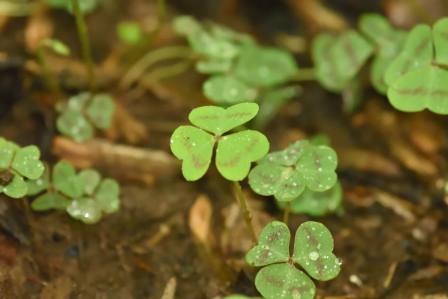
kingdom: Plantae
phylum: Tracheophyta
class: Magnoliopsida
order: Oxalidales
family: Oxalidaceae
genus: Oxalis
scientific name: Oxalis violacea
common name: Violet wood-sorrel
